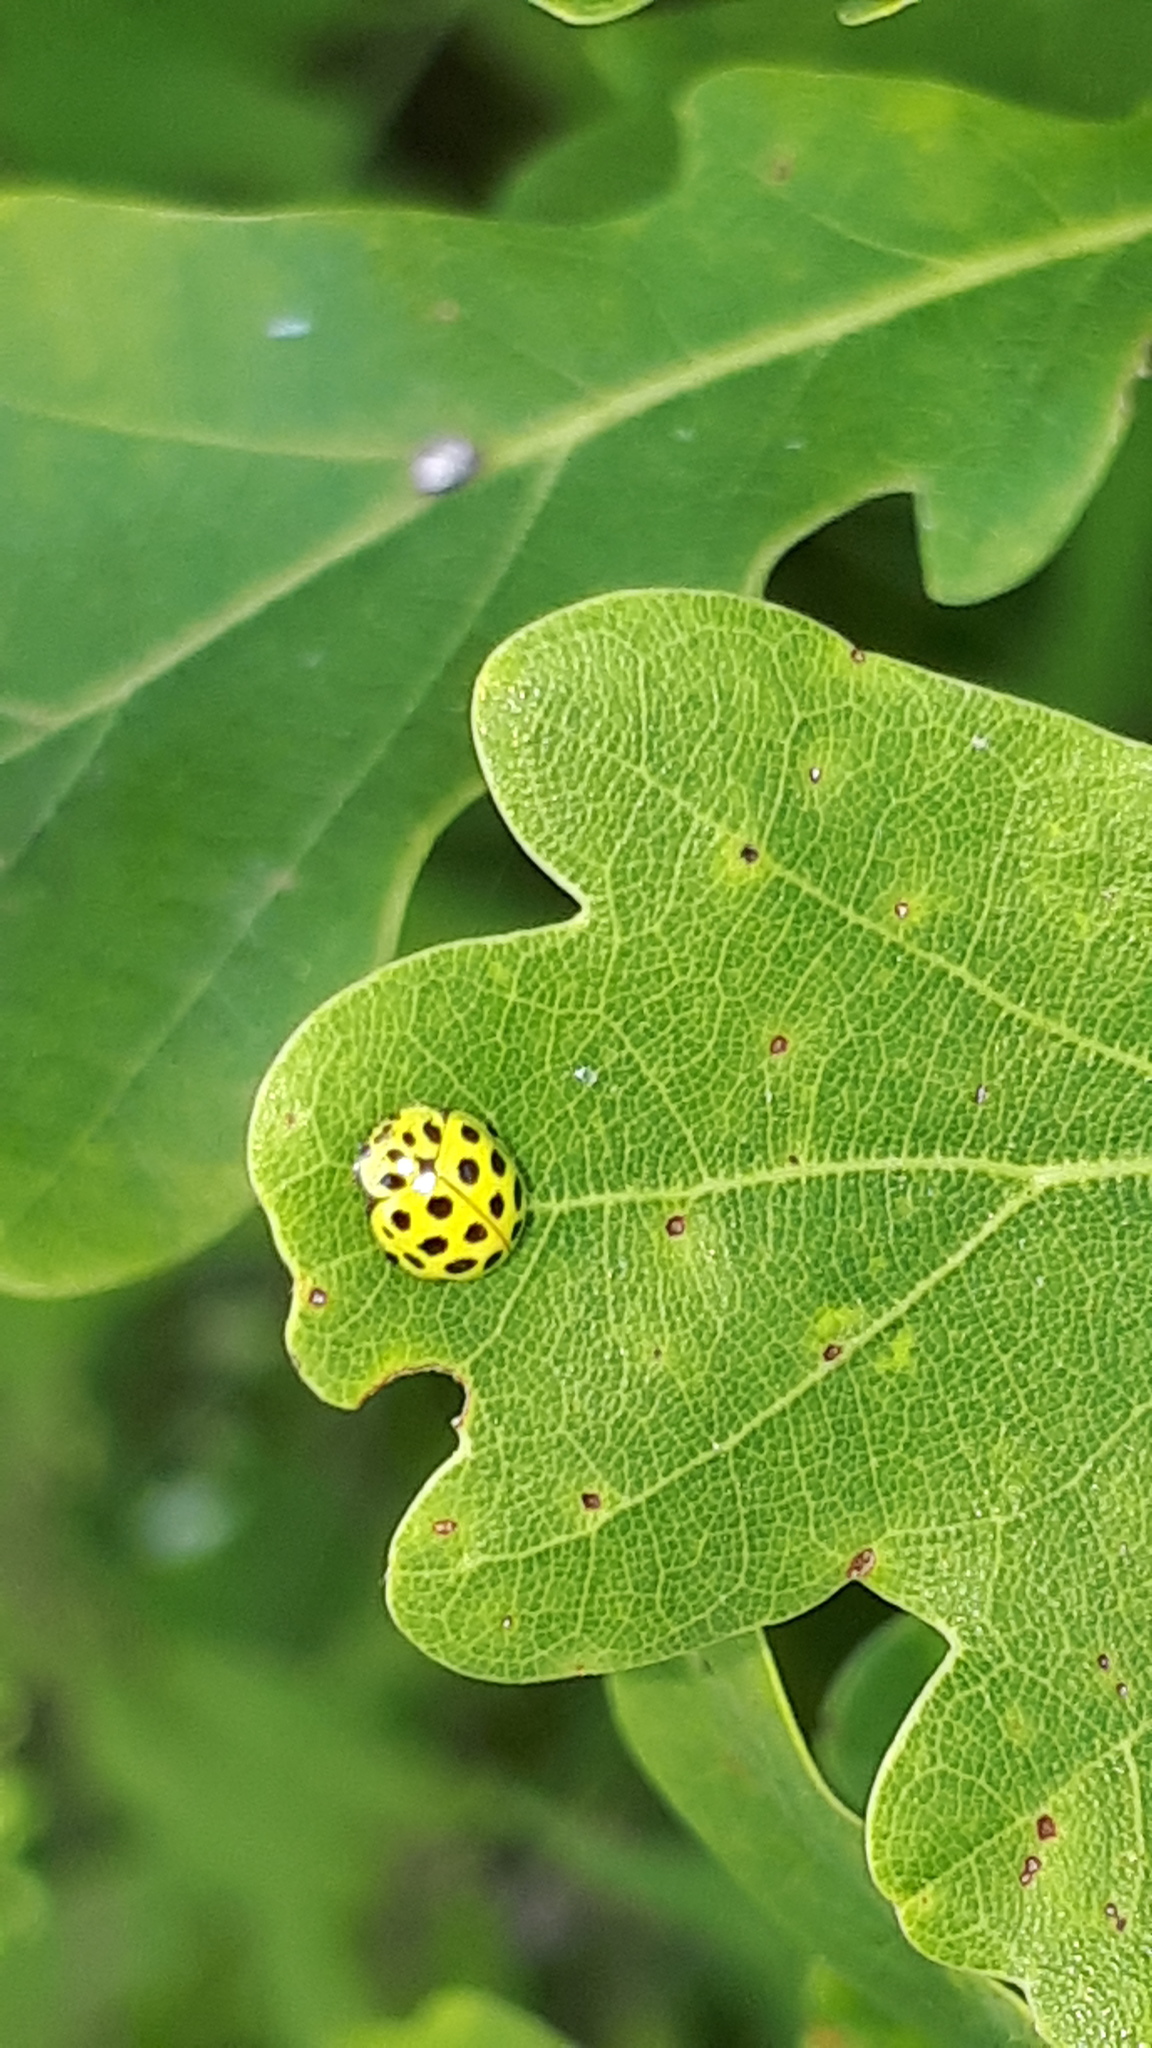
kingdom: Animalia
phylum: Arthropoda
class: Insecta
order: Coleoptera
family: Coccinellidae
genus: Psyllobora
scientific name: Psyllobora vigintiduopunctata
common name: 22-spot ladybird
